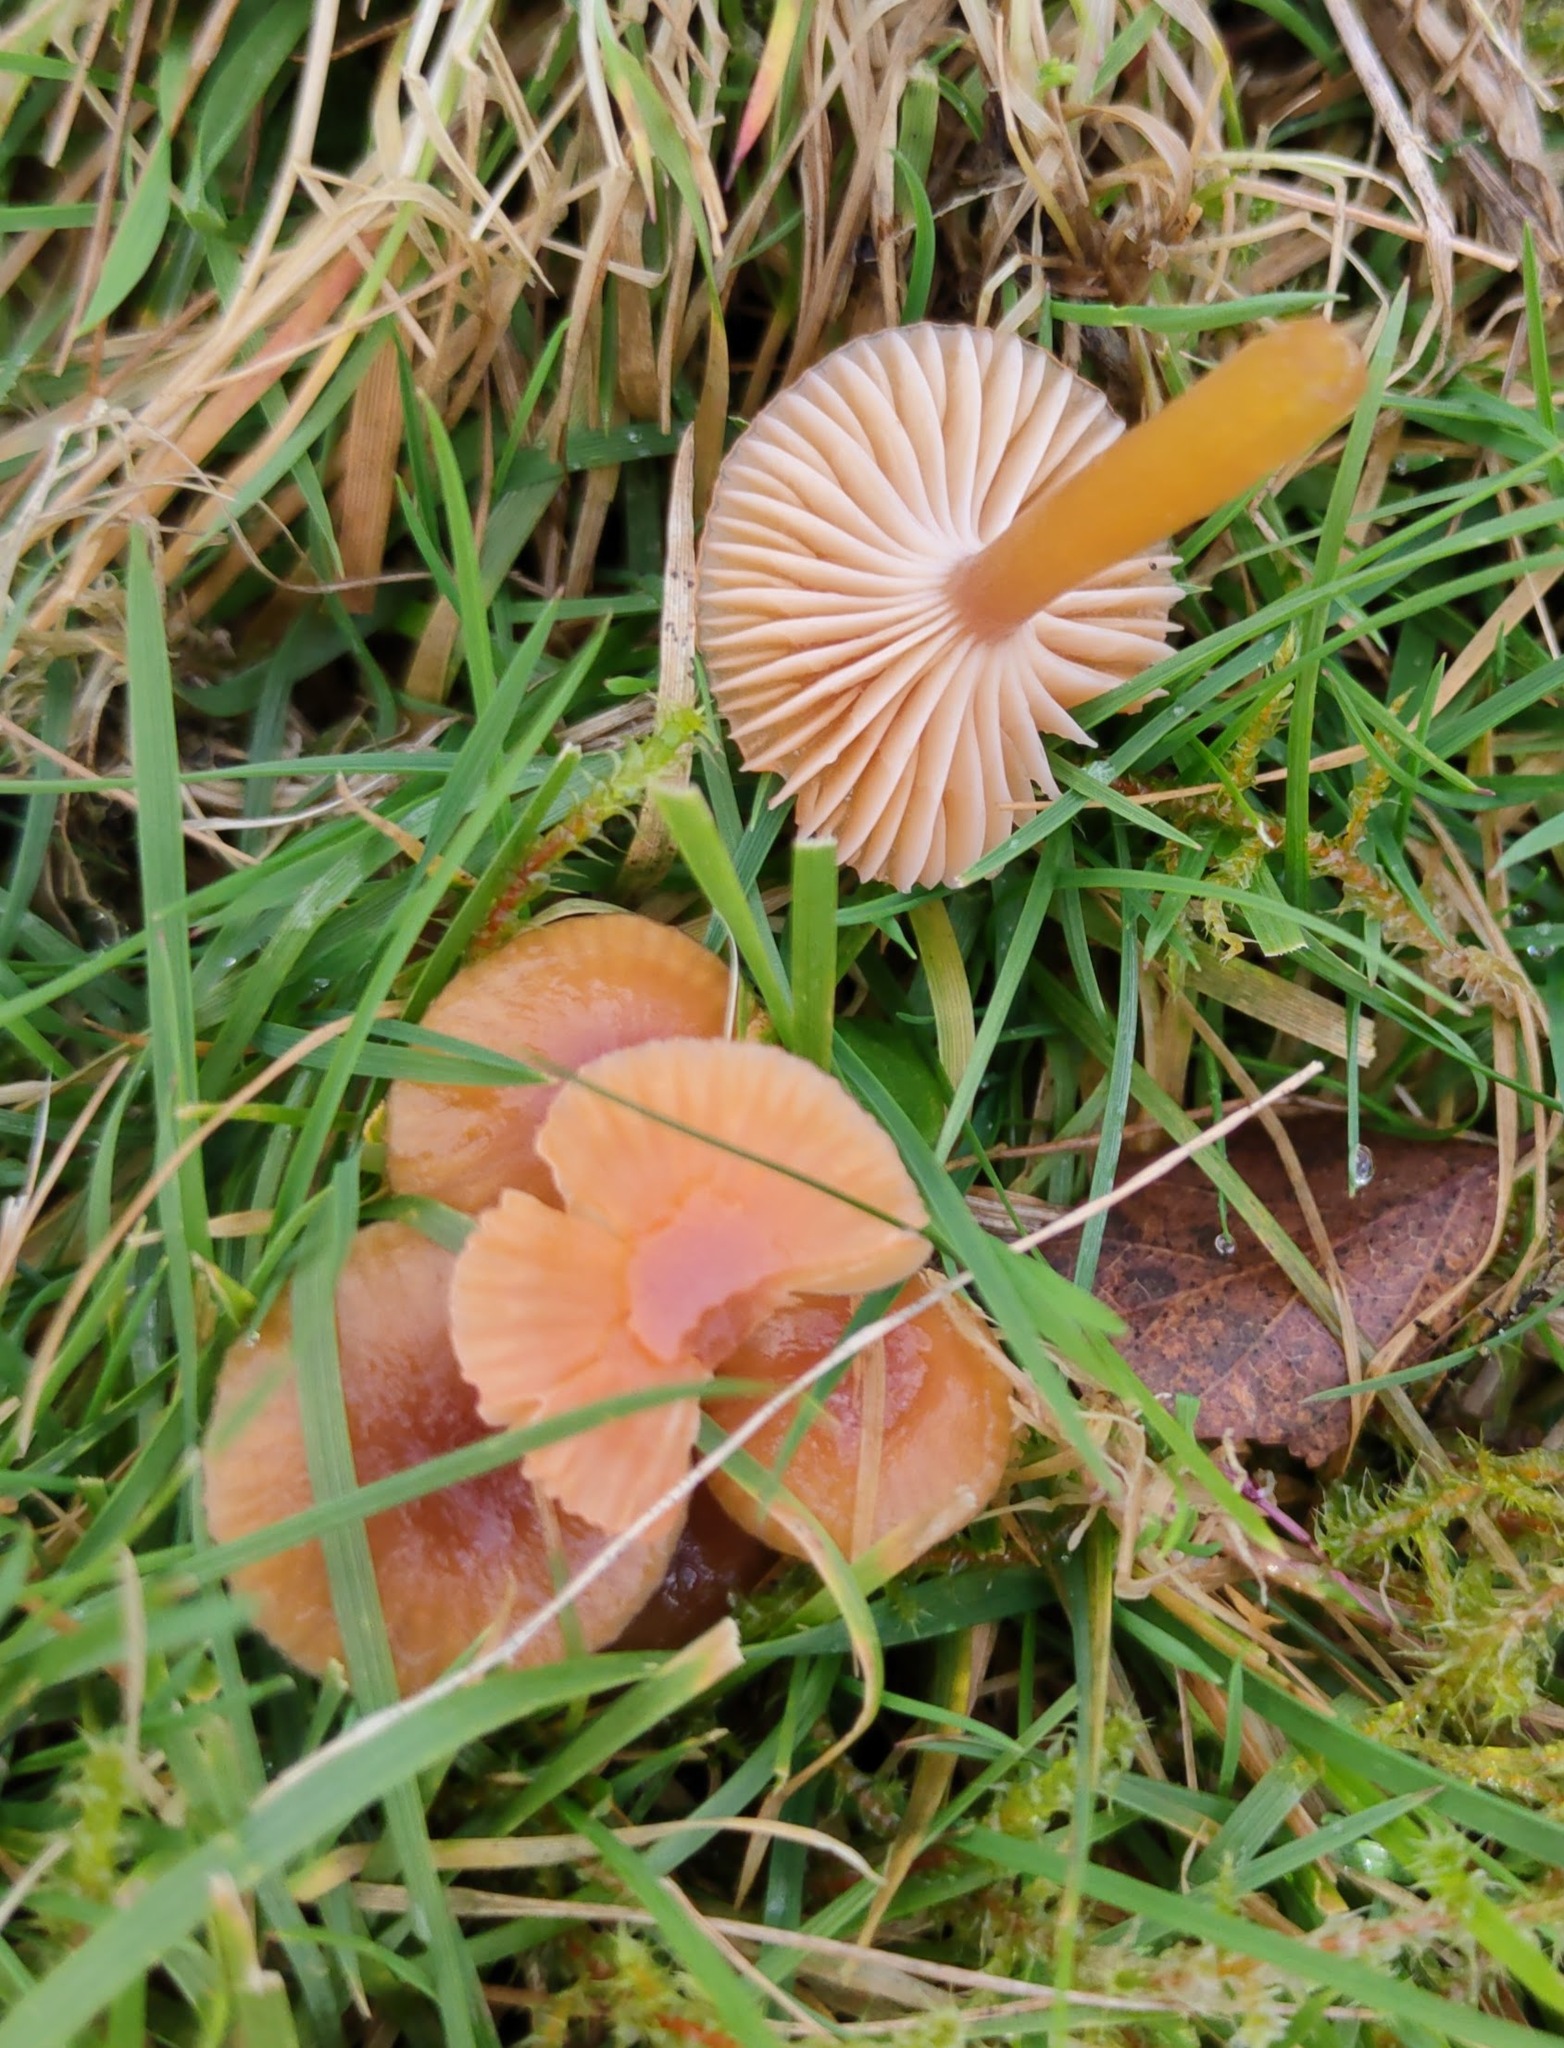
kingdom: Fungi
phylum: Basidiomycota
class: Agaricomycetes
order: Agaricales
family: Hygrophoraceae
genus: Gliophorus
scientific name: Gliophorus laetus
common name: Heath waxcap
